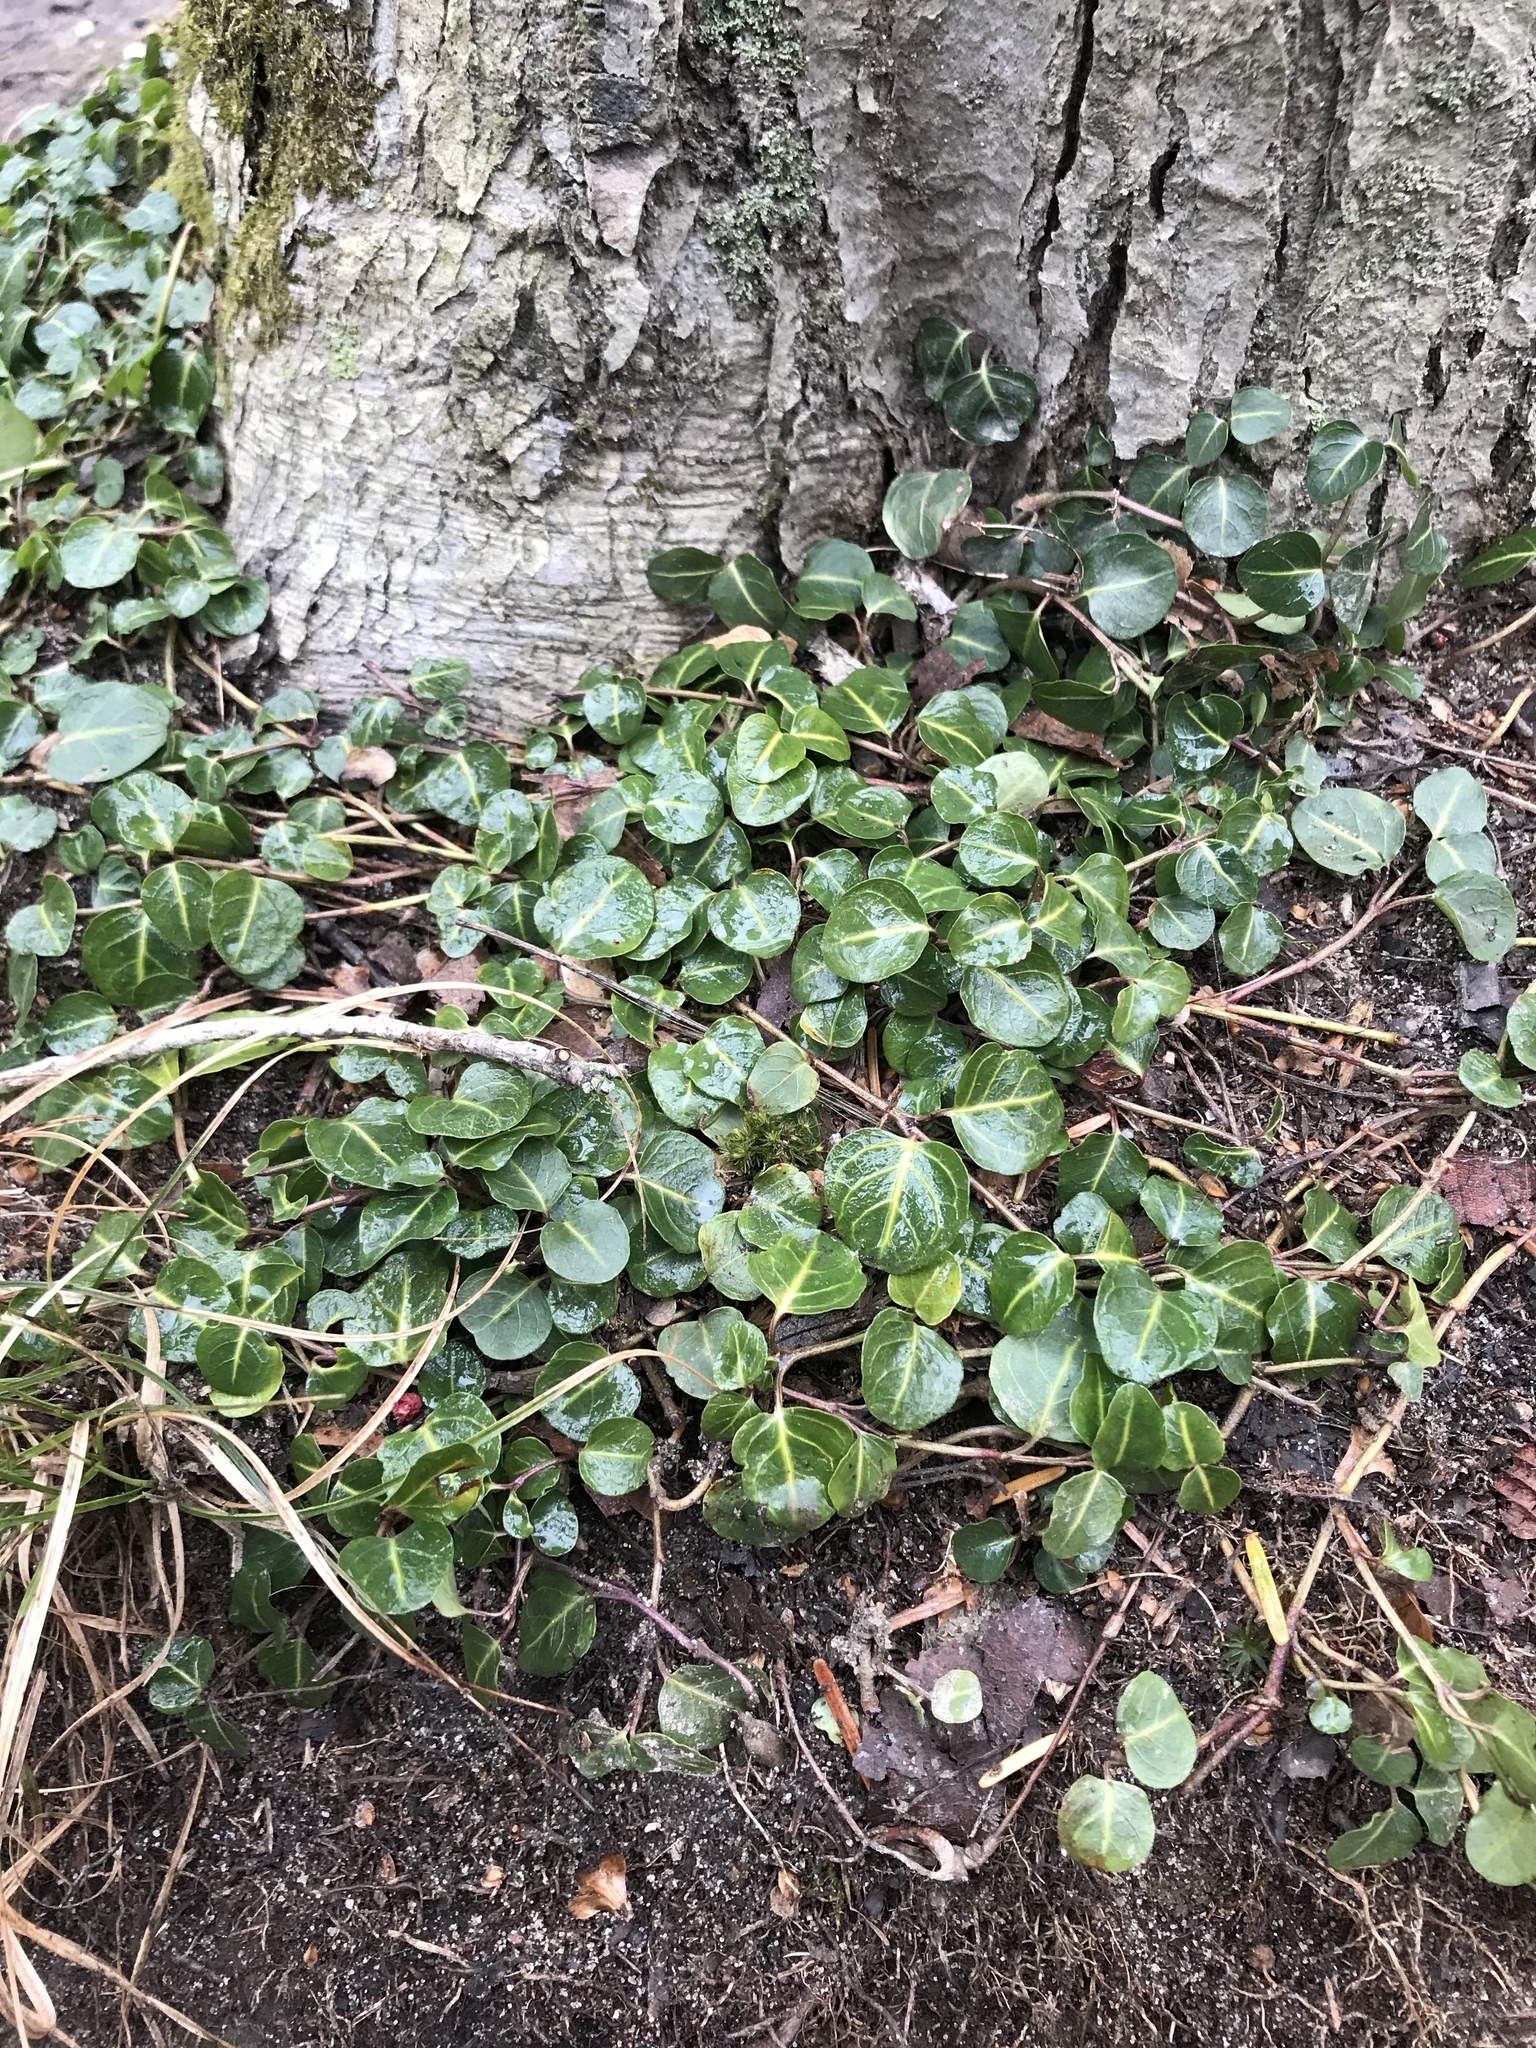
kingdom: Plantae
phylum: Tracheophyta
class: Magnoliopsida
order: Gentianales
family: Rubiaceae
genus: Mitchella
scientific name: Mitchella repens
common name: Partridge-berry
